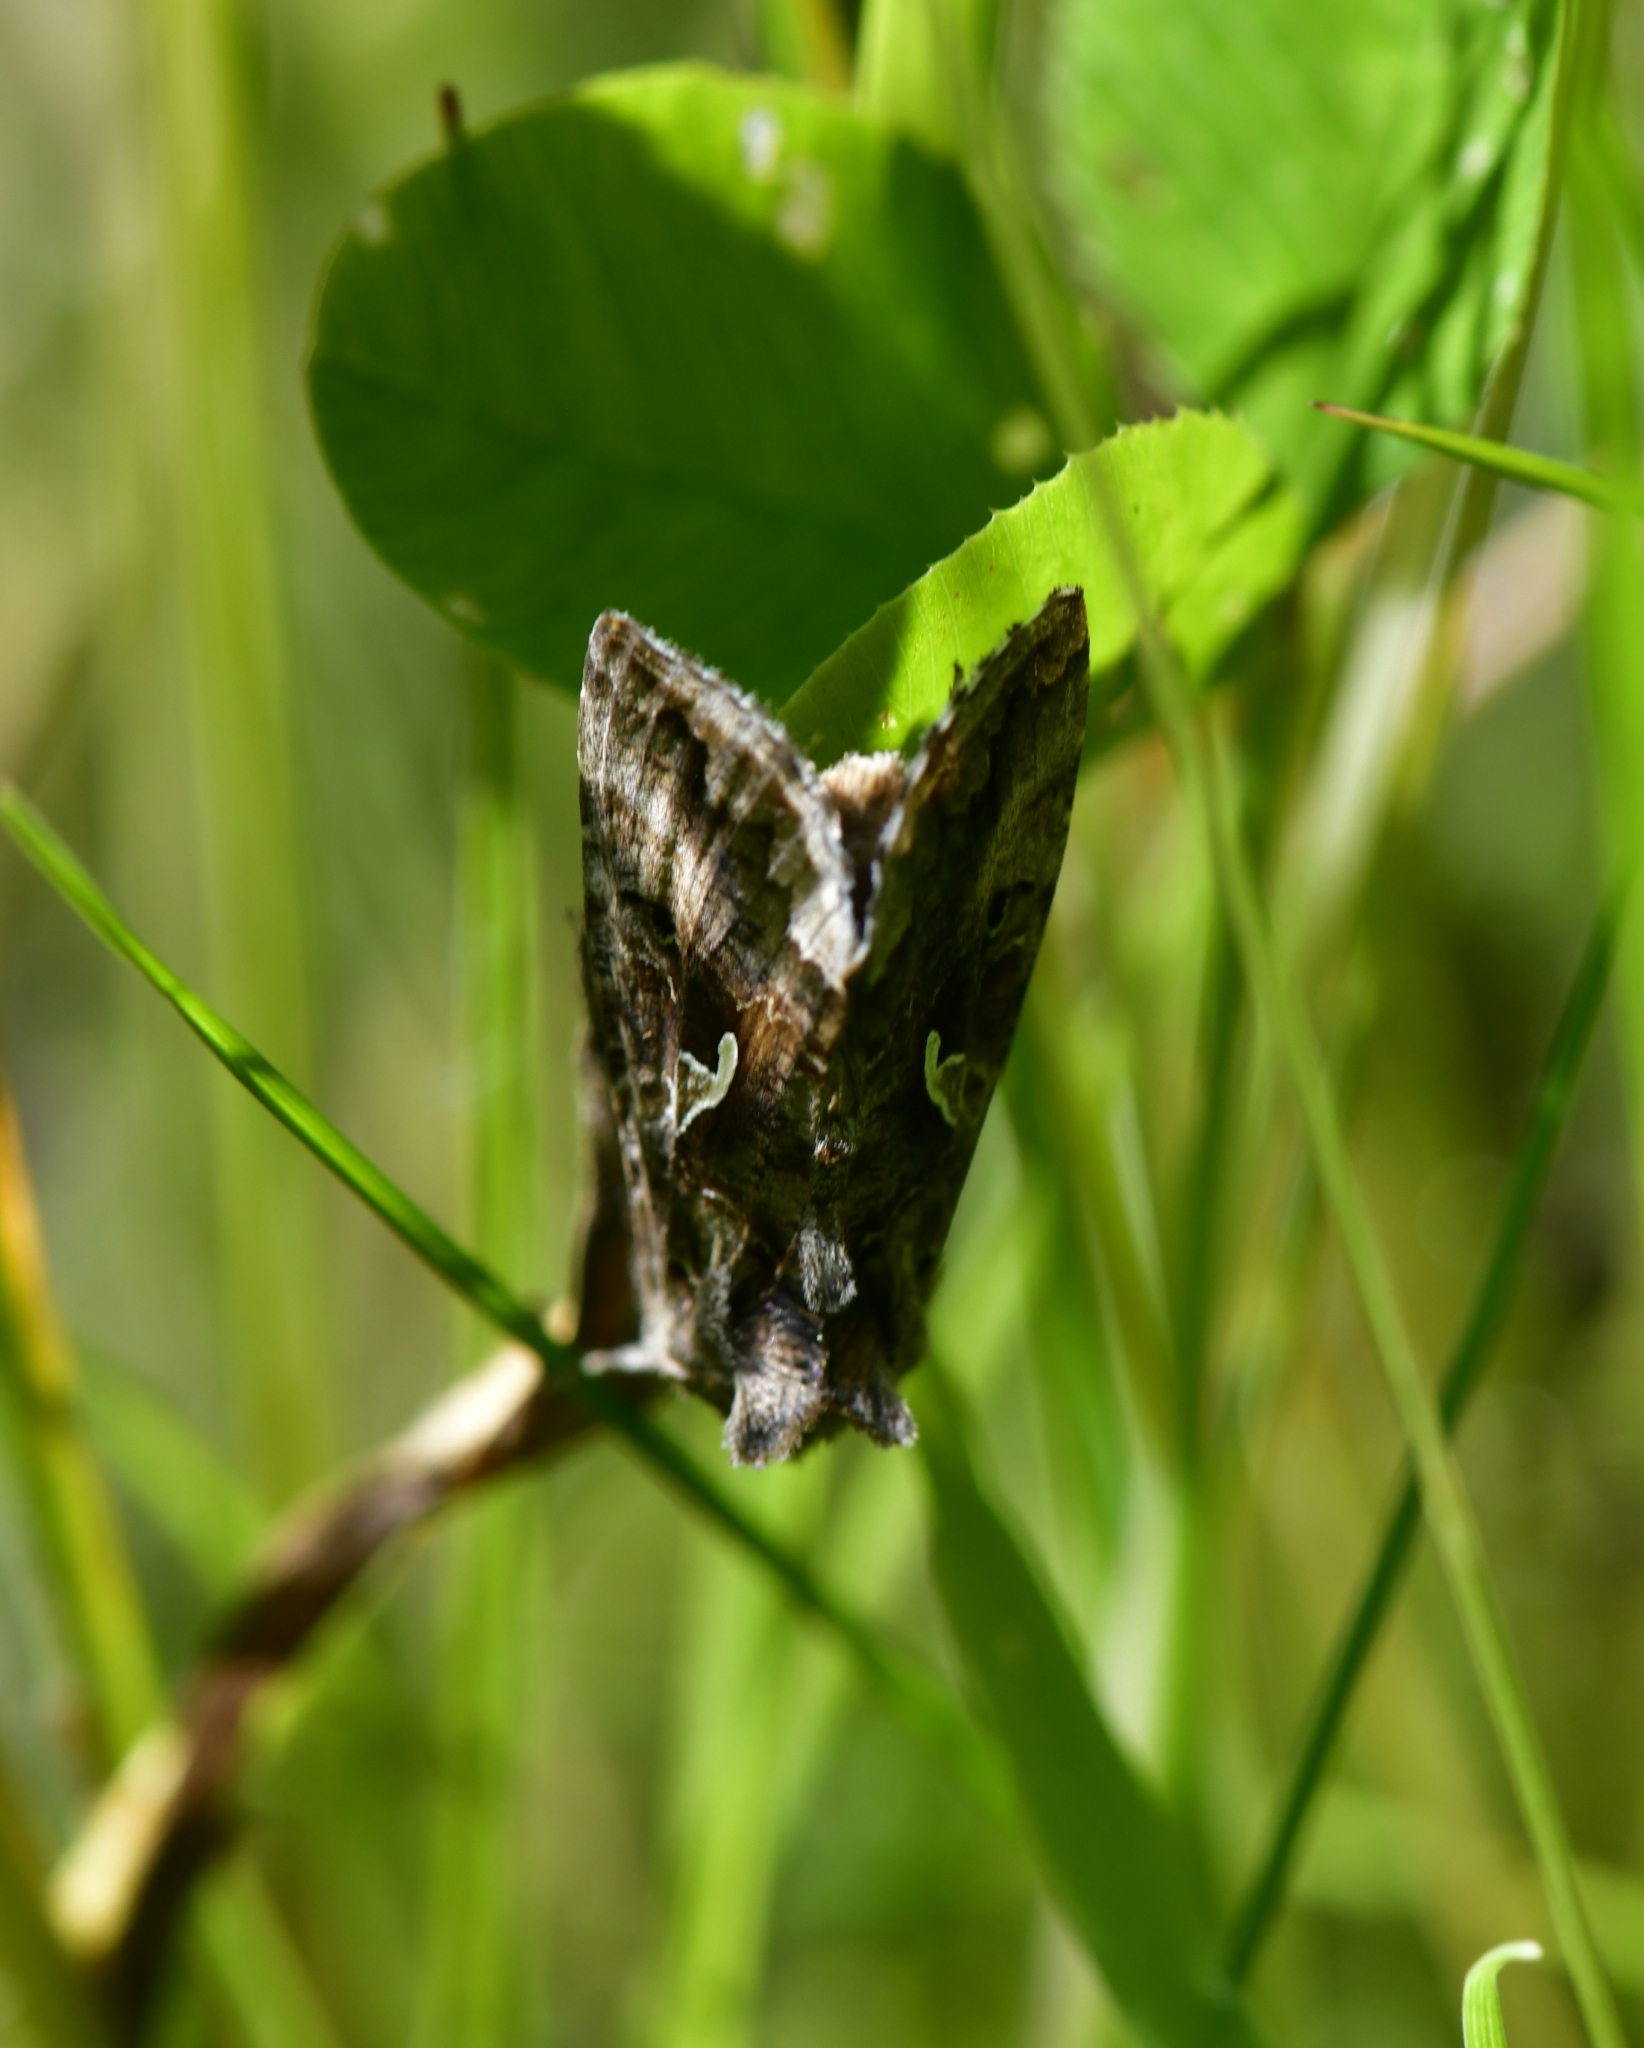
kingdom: Animalia
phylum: Arthropoda
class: Insecta
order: Lepidoptera
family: Noctuidae
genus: Autographa
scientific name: Autographa gamma
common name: Silver y
